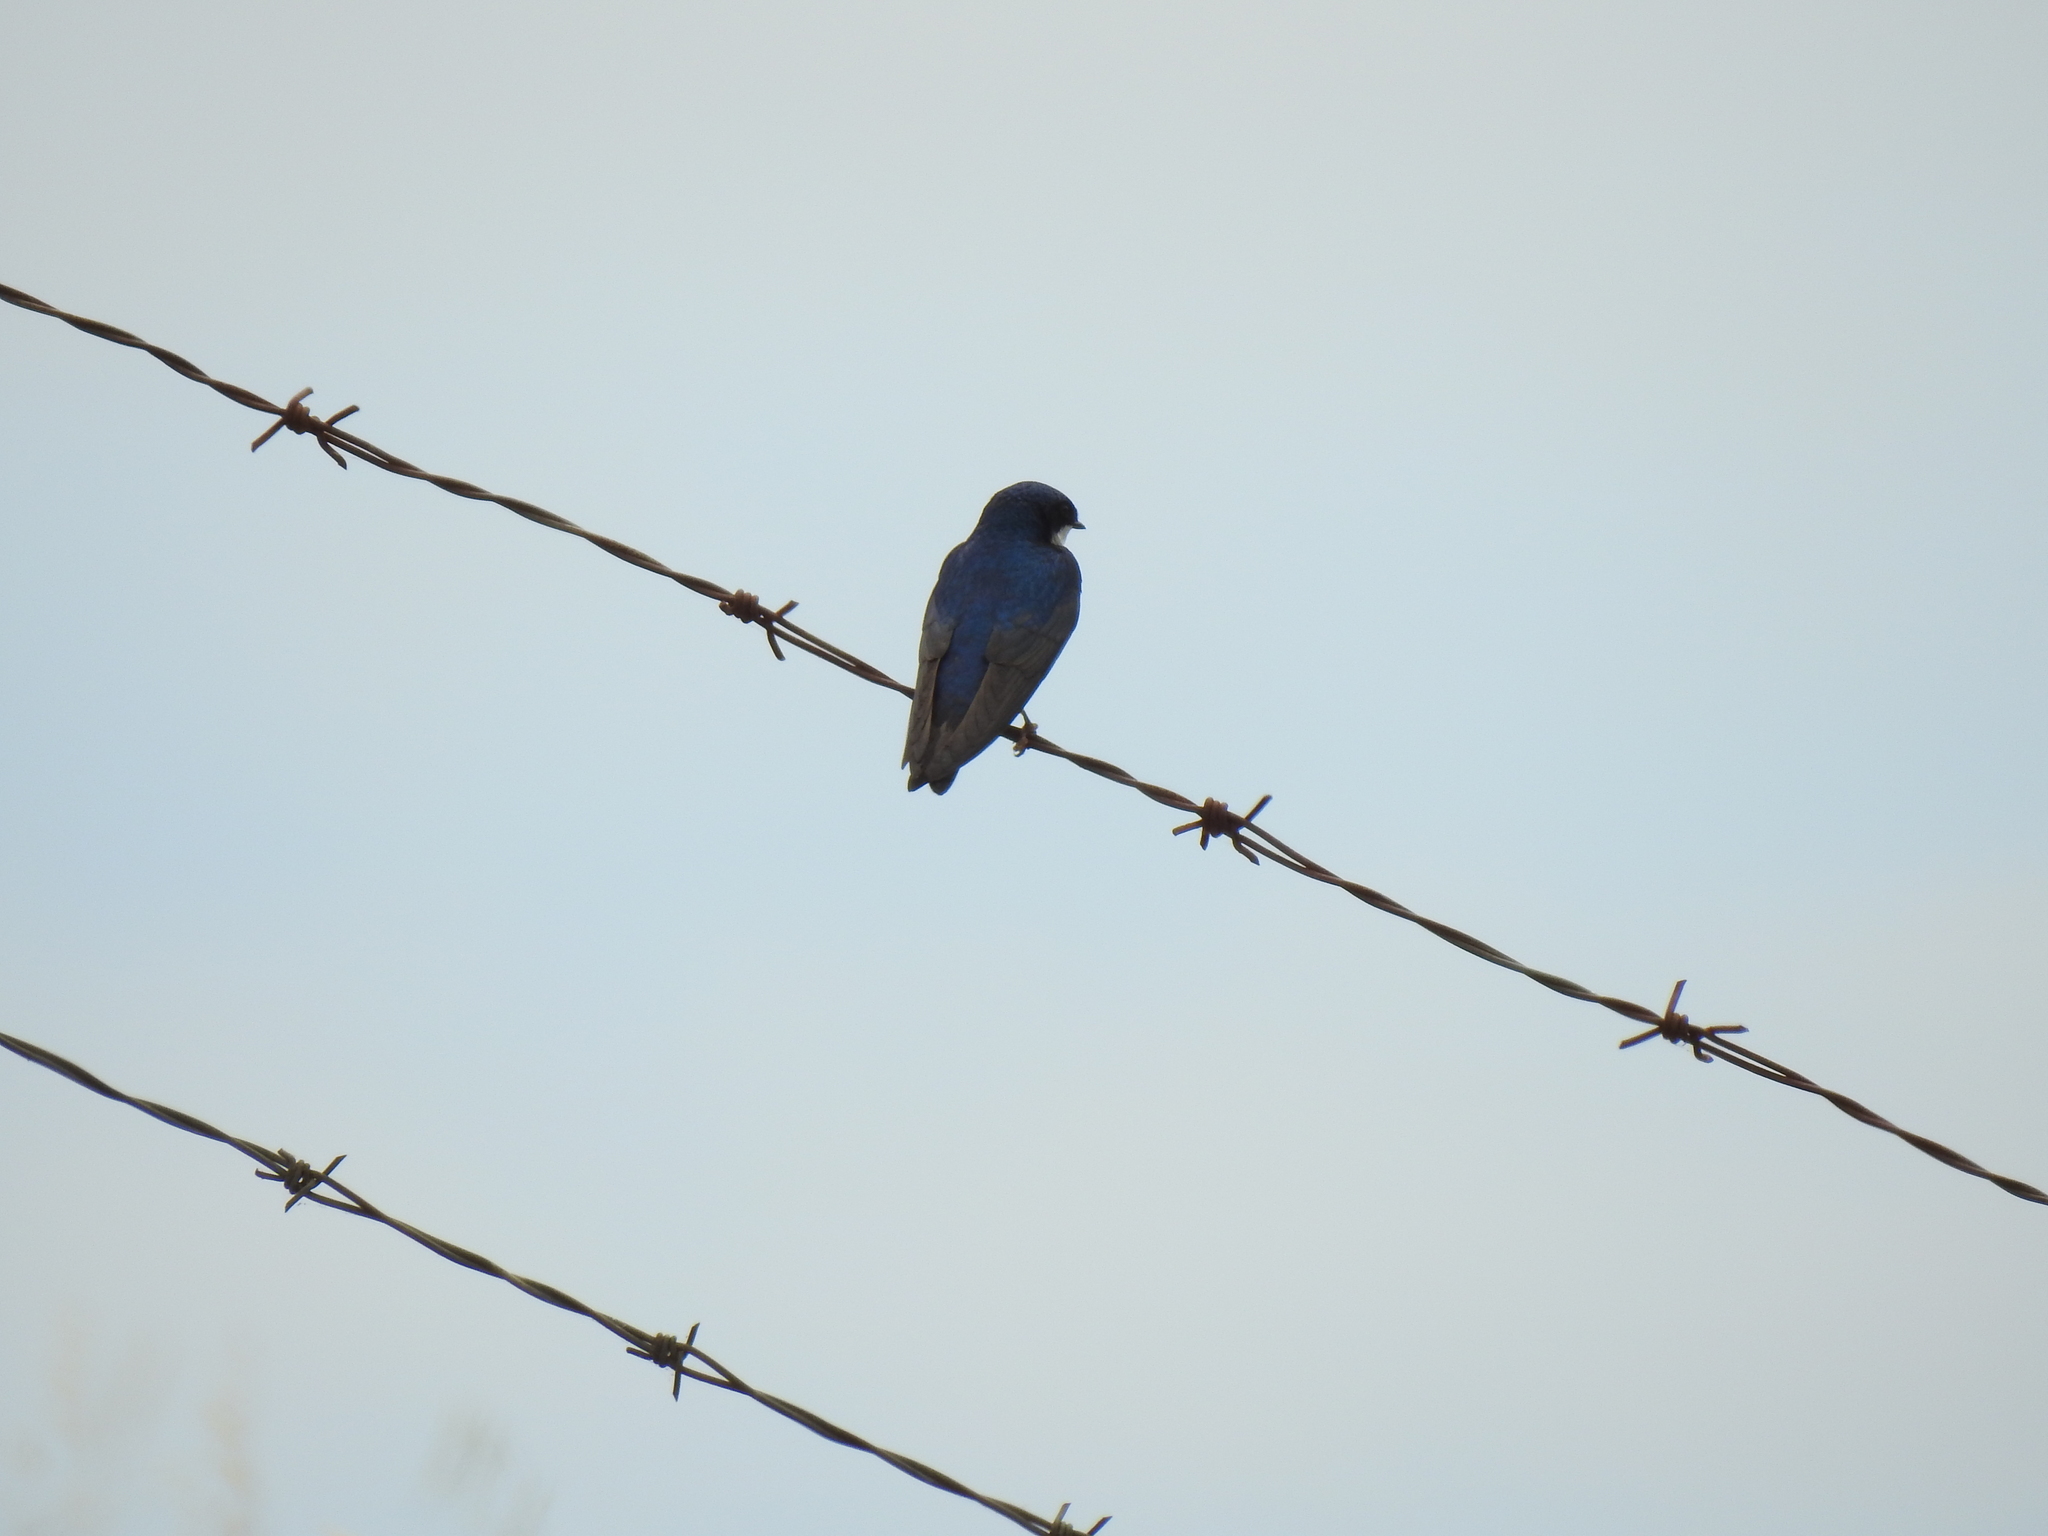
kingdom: Animalia
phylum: Chordata
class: Aves
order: Passeriformes
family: Hirundinidae
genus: Tachycineta
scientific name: Tachycineta bicolor
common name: Tree swallow
